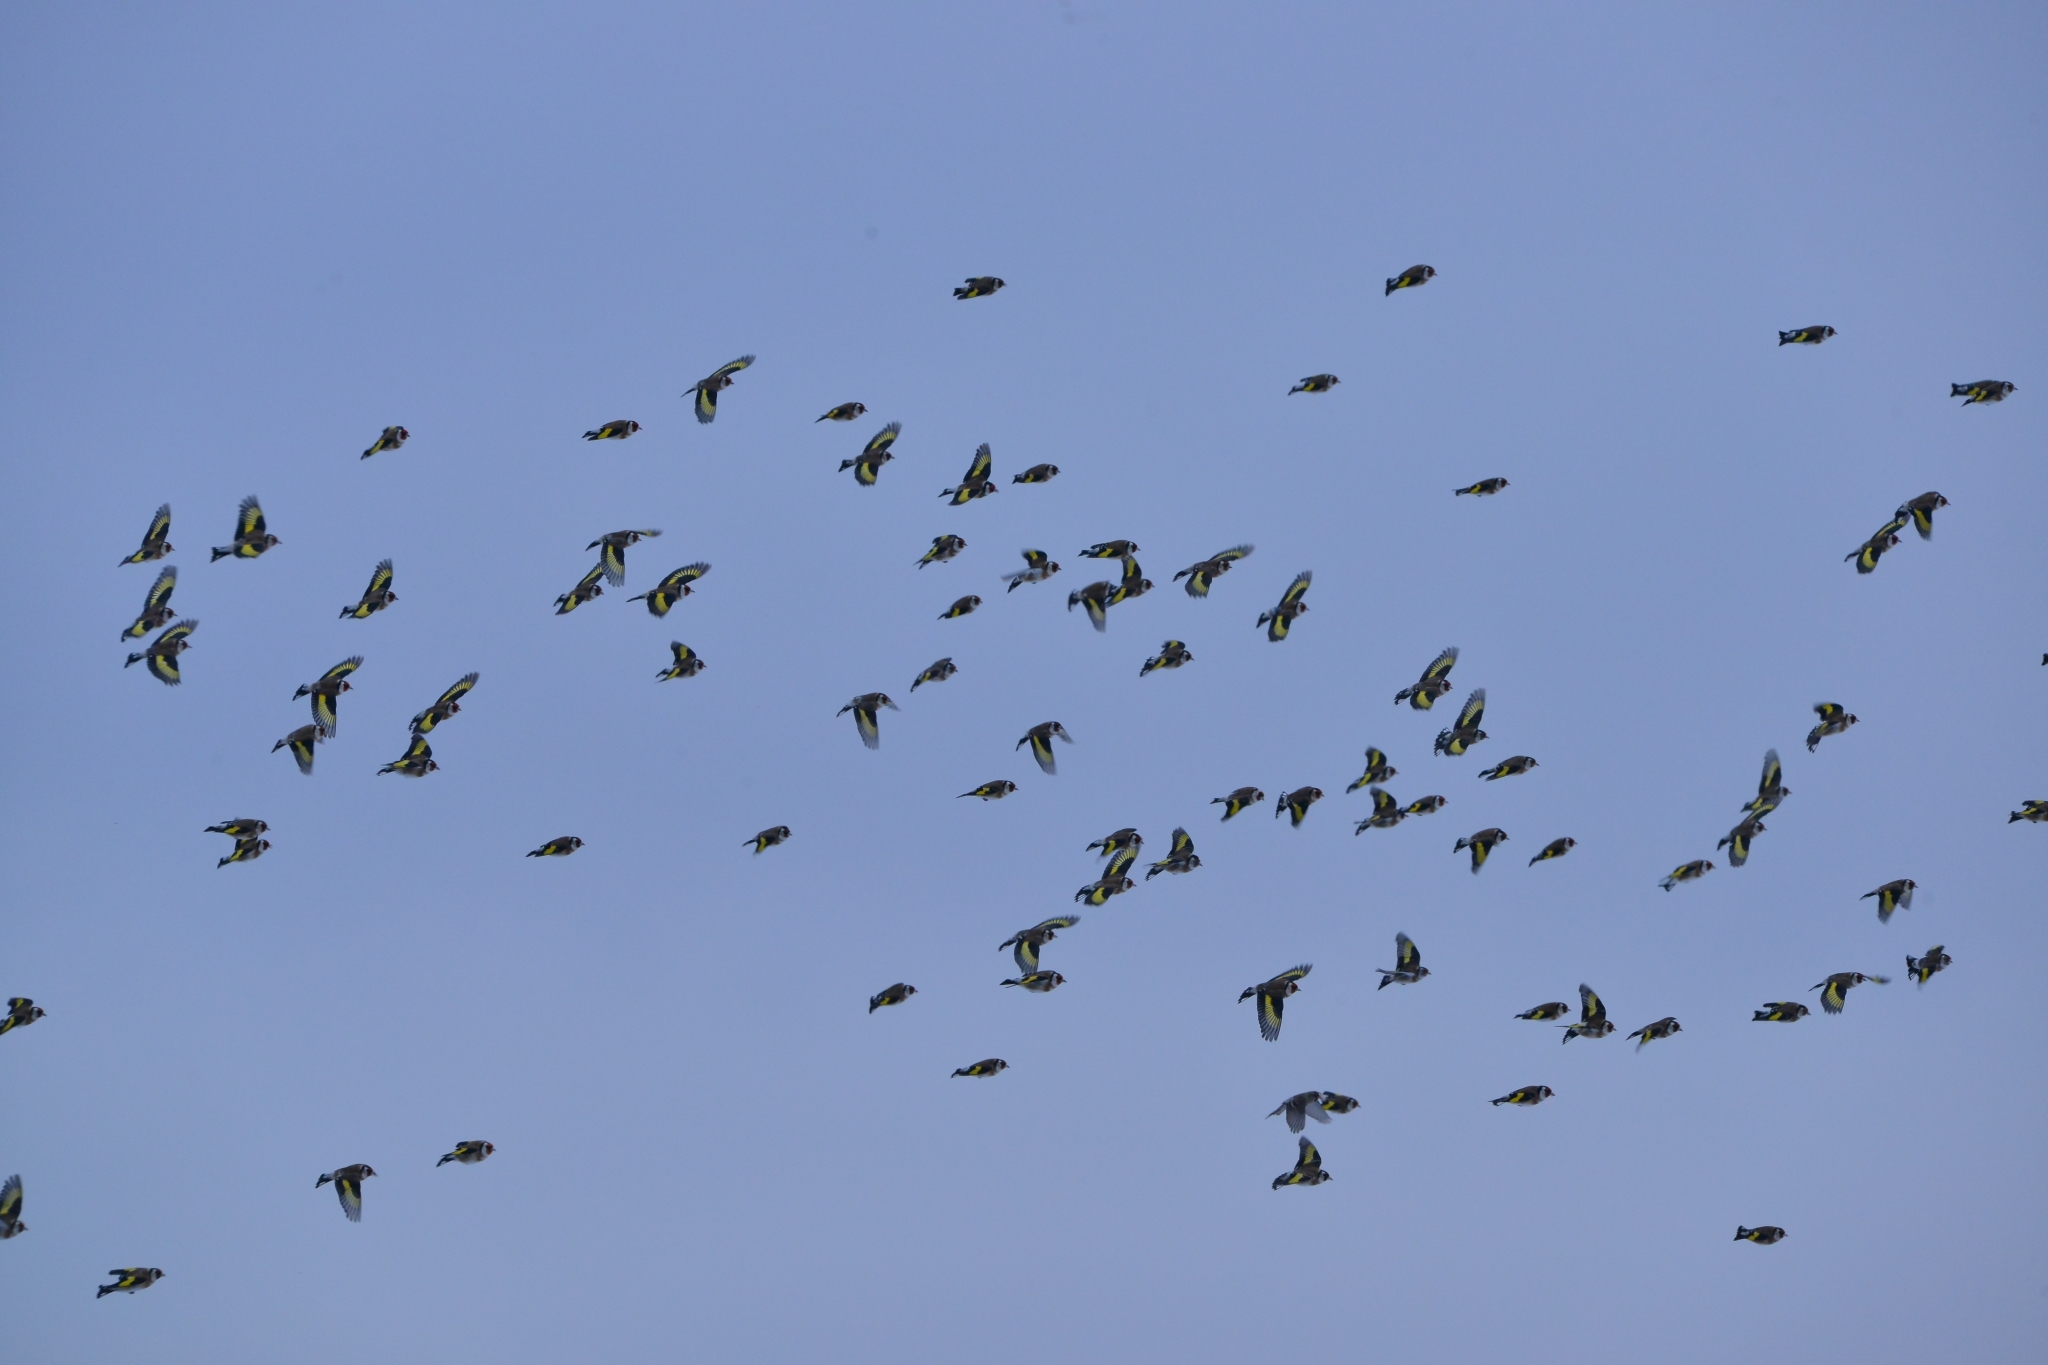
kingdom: Animalia
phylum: Chordata
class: Aves
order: Passeriformes
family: Fringillidae
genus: Carduelis
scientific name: Carduelis carduelis
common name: European goldfinch
